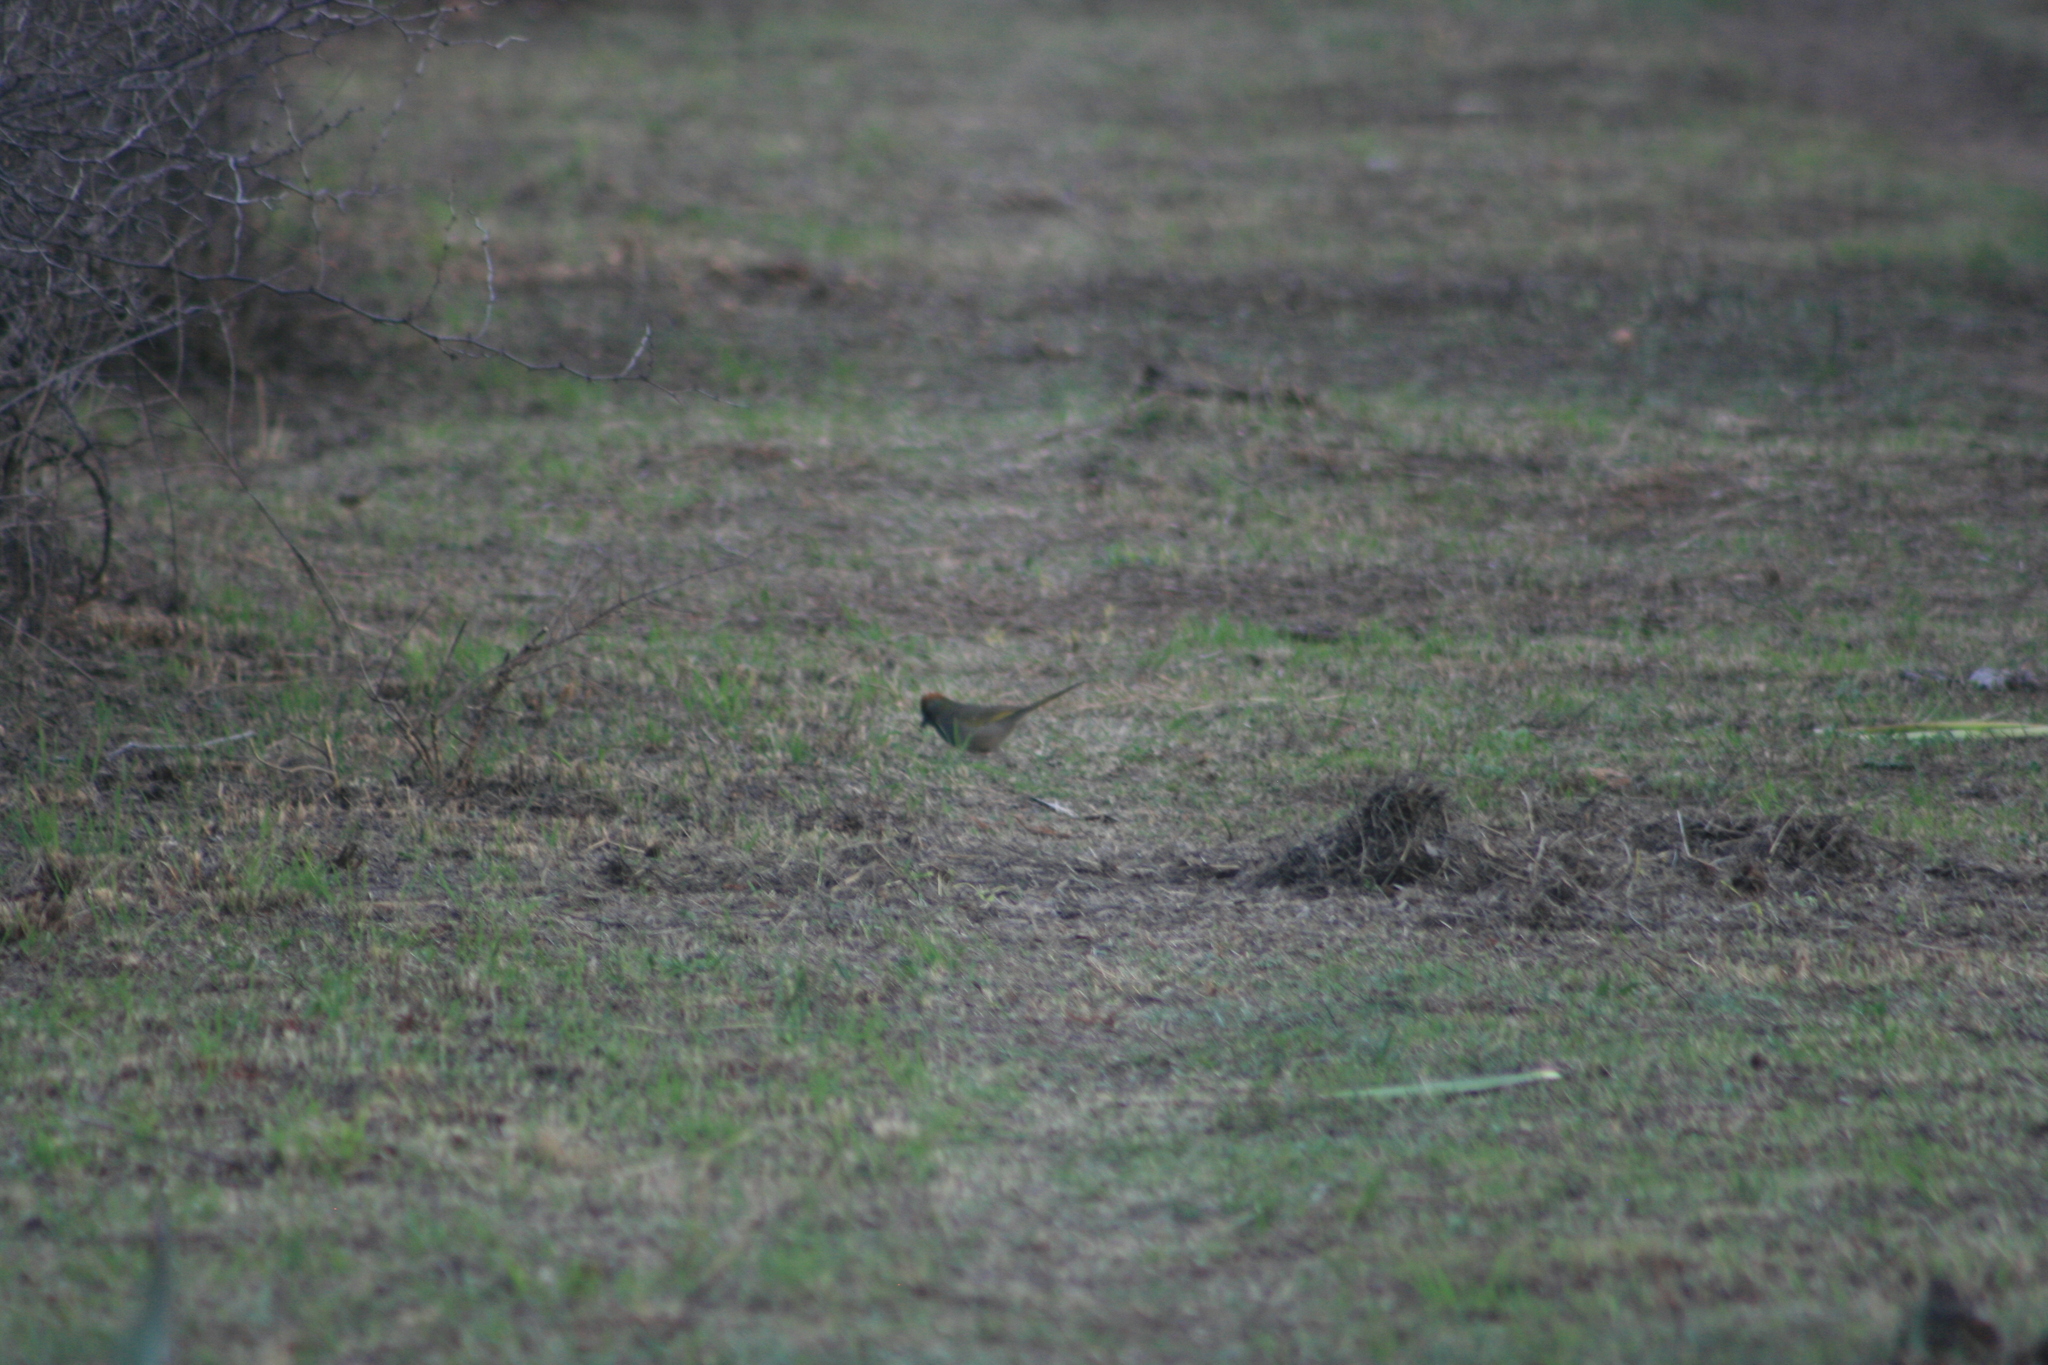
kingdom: Animalia
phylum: Chordata
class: Aves
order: Passeriformes
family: Passerellidae
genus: Pipilo
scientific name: Pipilo chlorurus
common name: Green-tailed towhee
